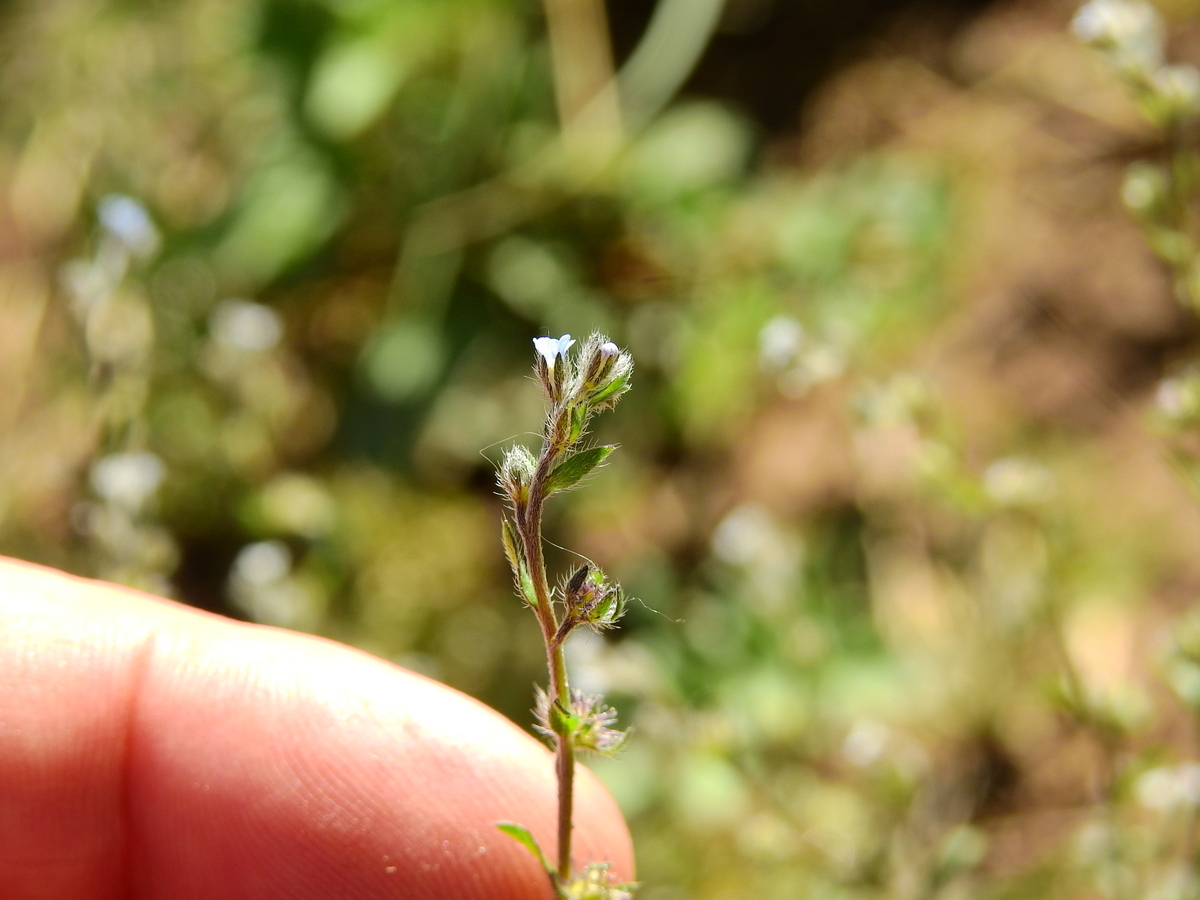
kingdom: Plantae
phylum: Tracheophyta
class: Magnoliopsida
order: Boraginales
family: Boraginaceae
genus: Lappula
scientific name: Lappula redowskii
